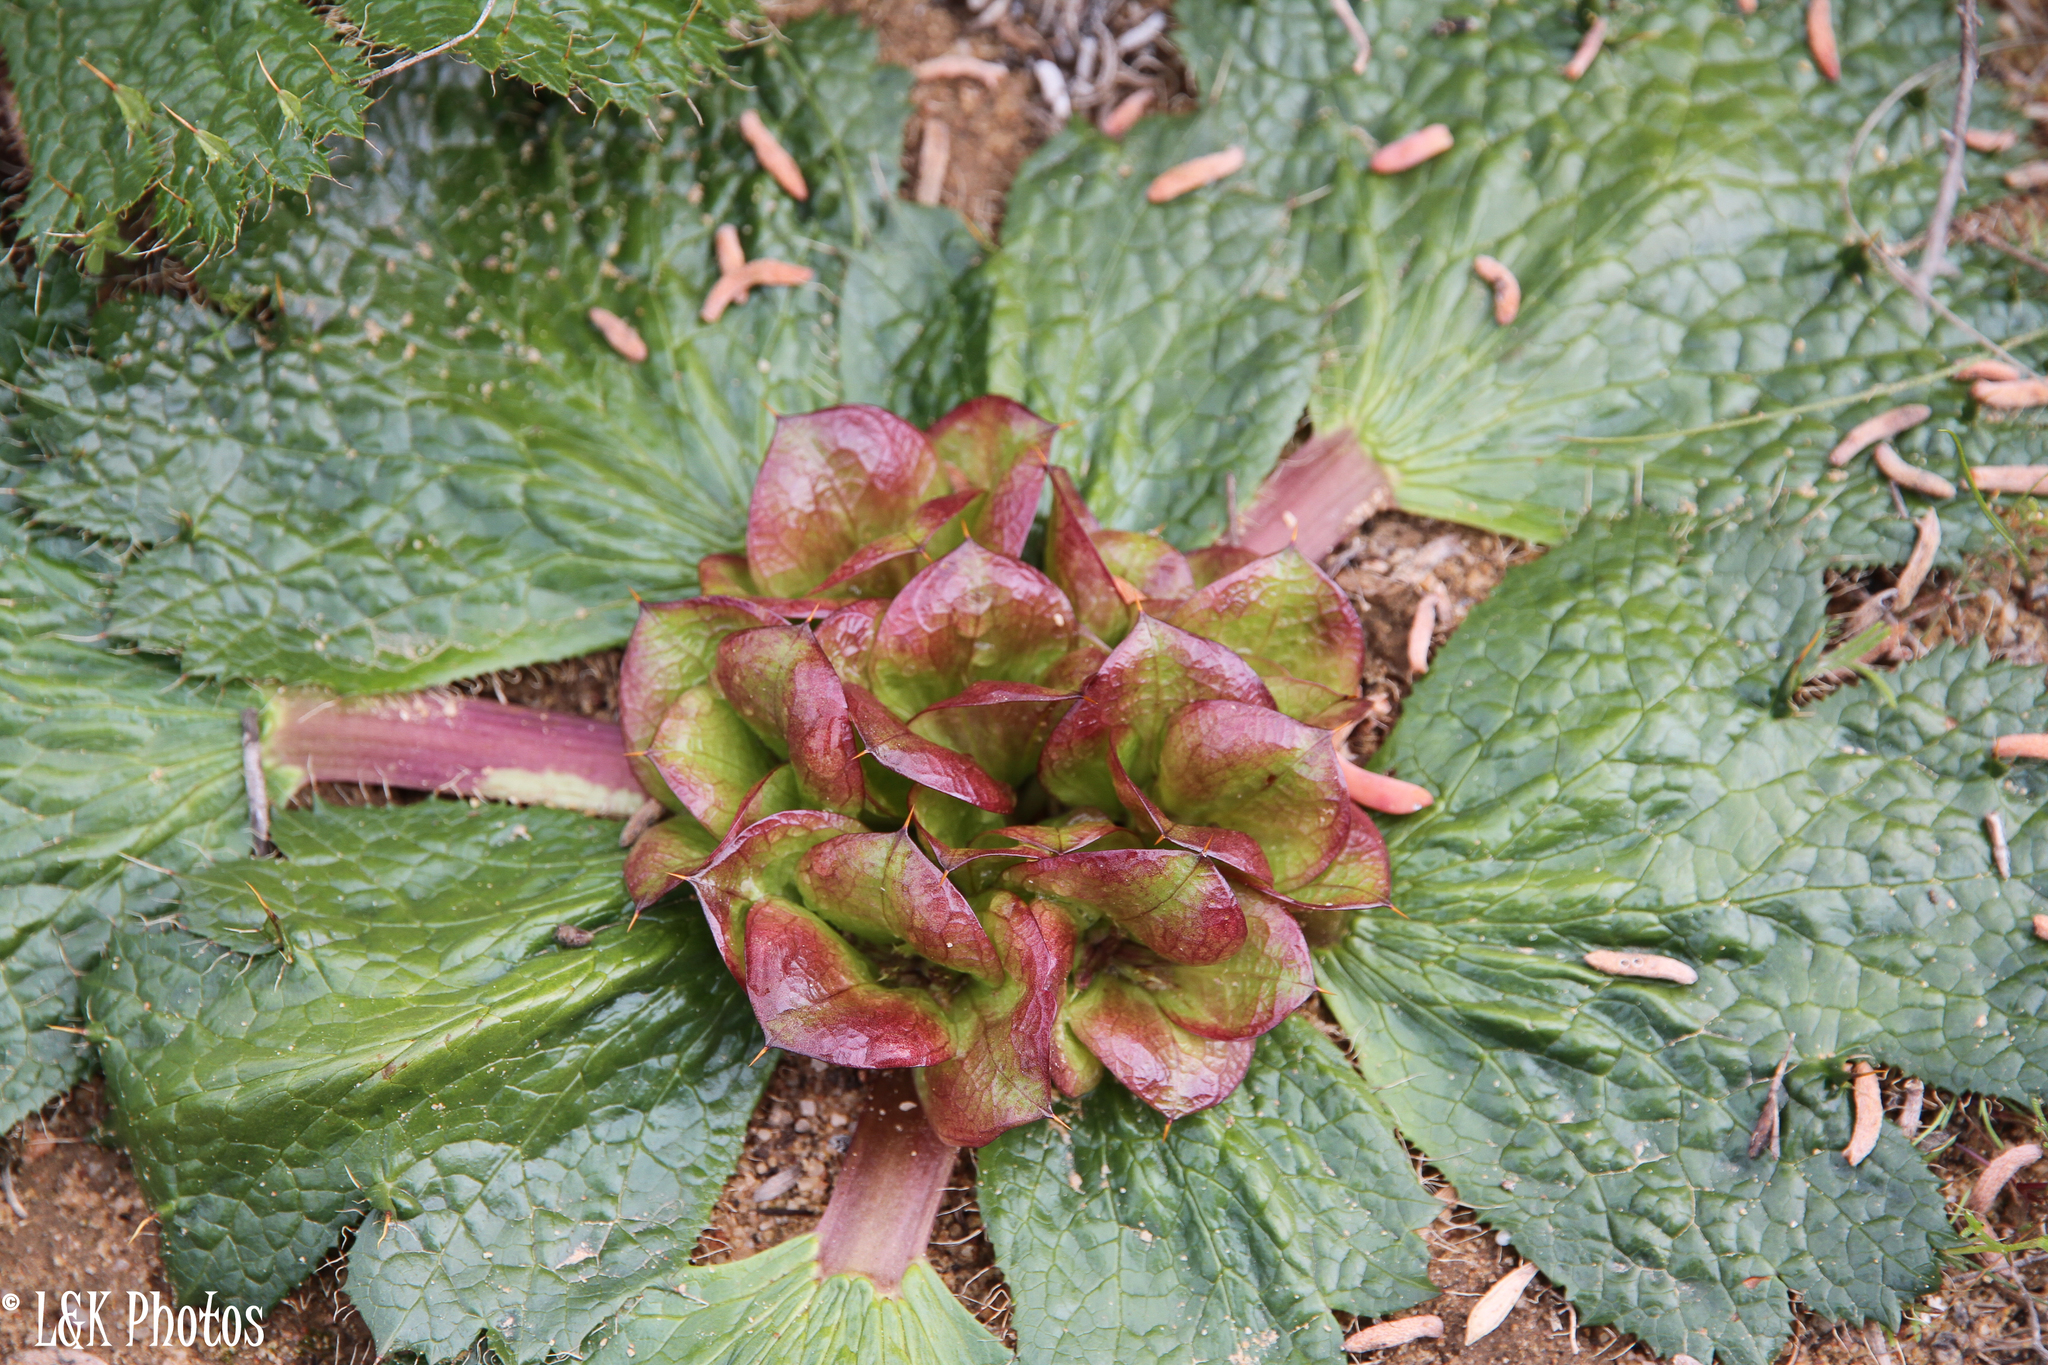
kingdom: Plantae
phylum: Tracheophyta
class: Magnoliopsida
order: Apiales
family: Apiaceae
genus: Arctopus
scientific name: Arctopus monacanthus
